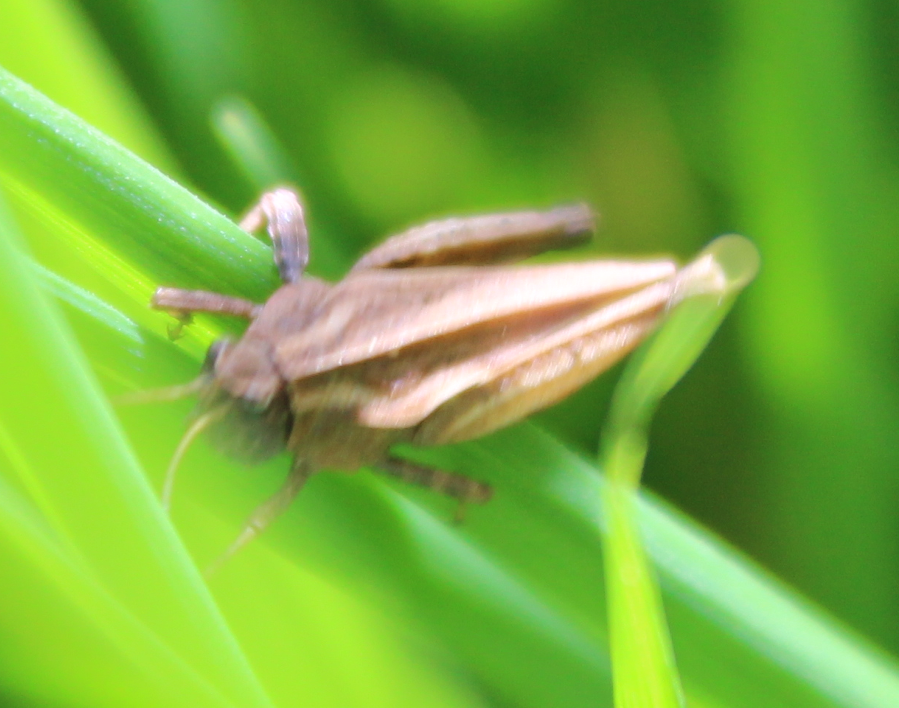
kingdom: Animalia
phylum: Arthropoda
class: Insecta
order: Orthoptera
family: Tetrigidae
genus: Tetrix
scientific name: Tetrix undulata
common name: Common groundhopper
